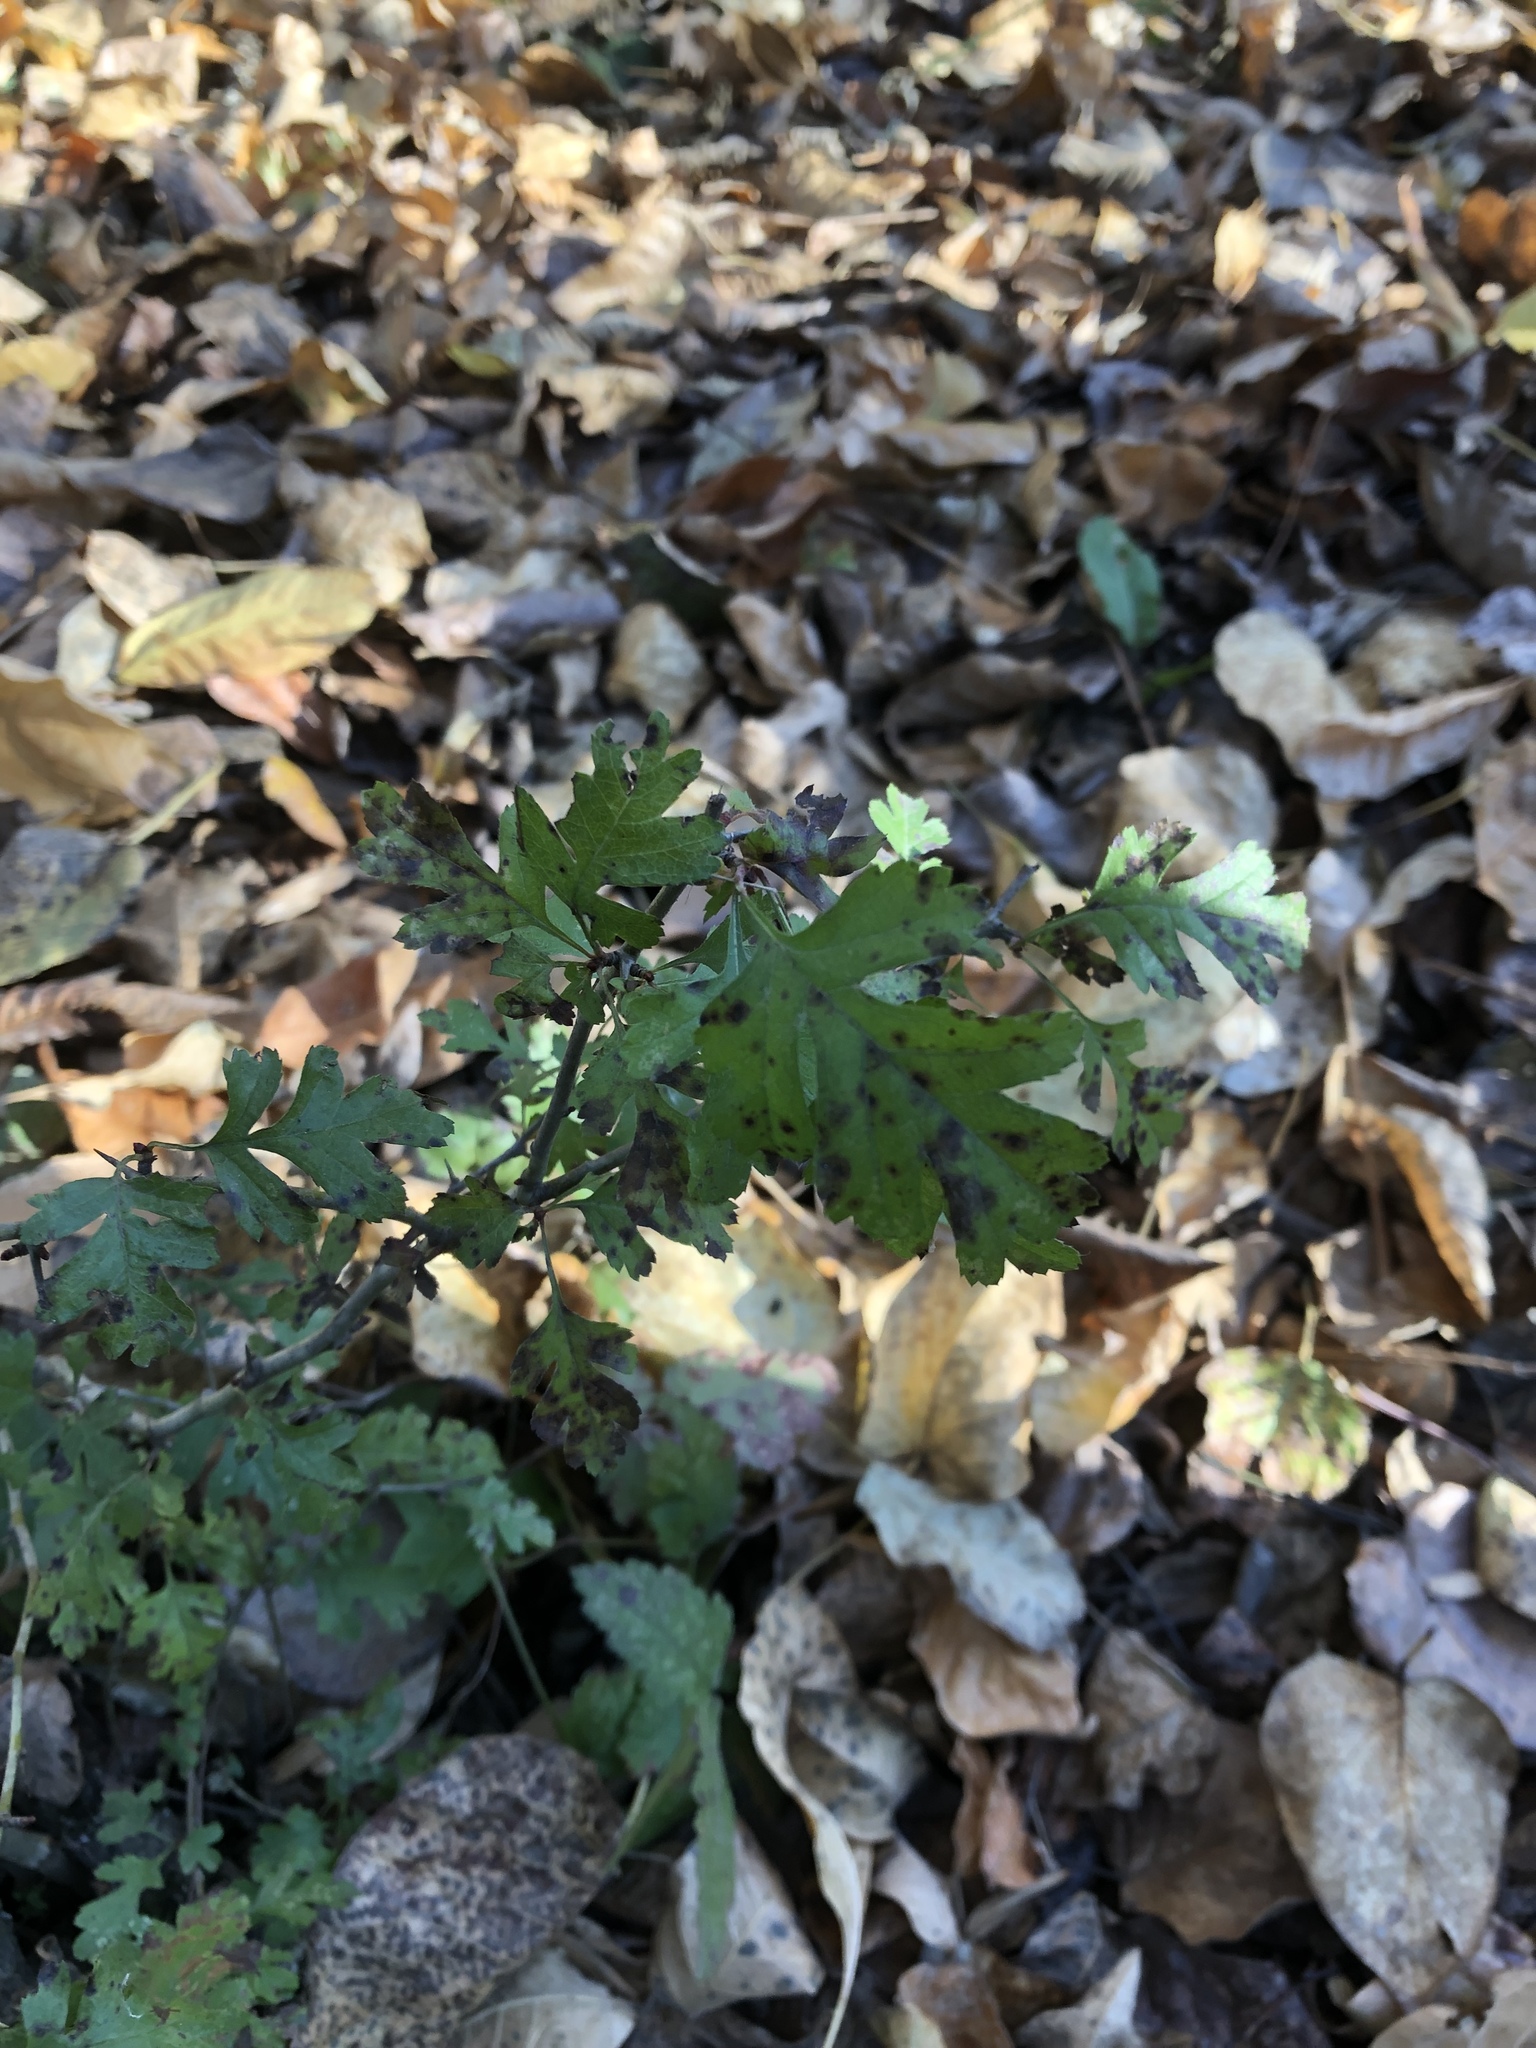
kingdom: Plantae
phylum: Tracheophyta
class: Magnoliopsida
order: Rosales
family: Rosaceae
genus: Crataegus
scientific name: Crataegus monogyna
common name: Hawthorn
